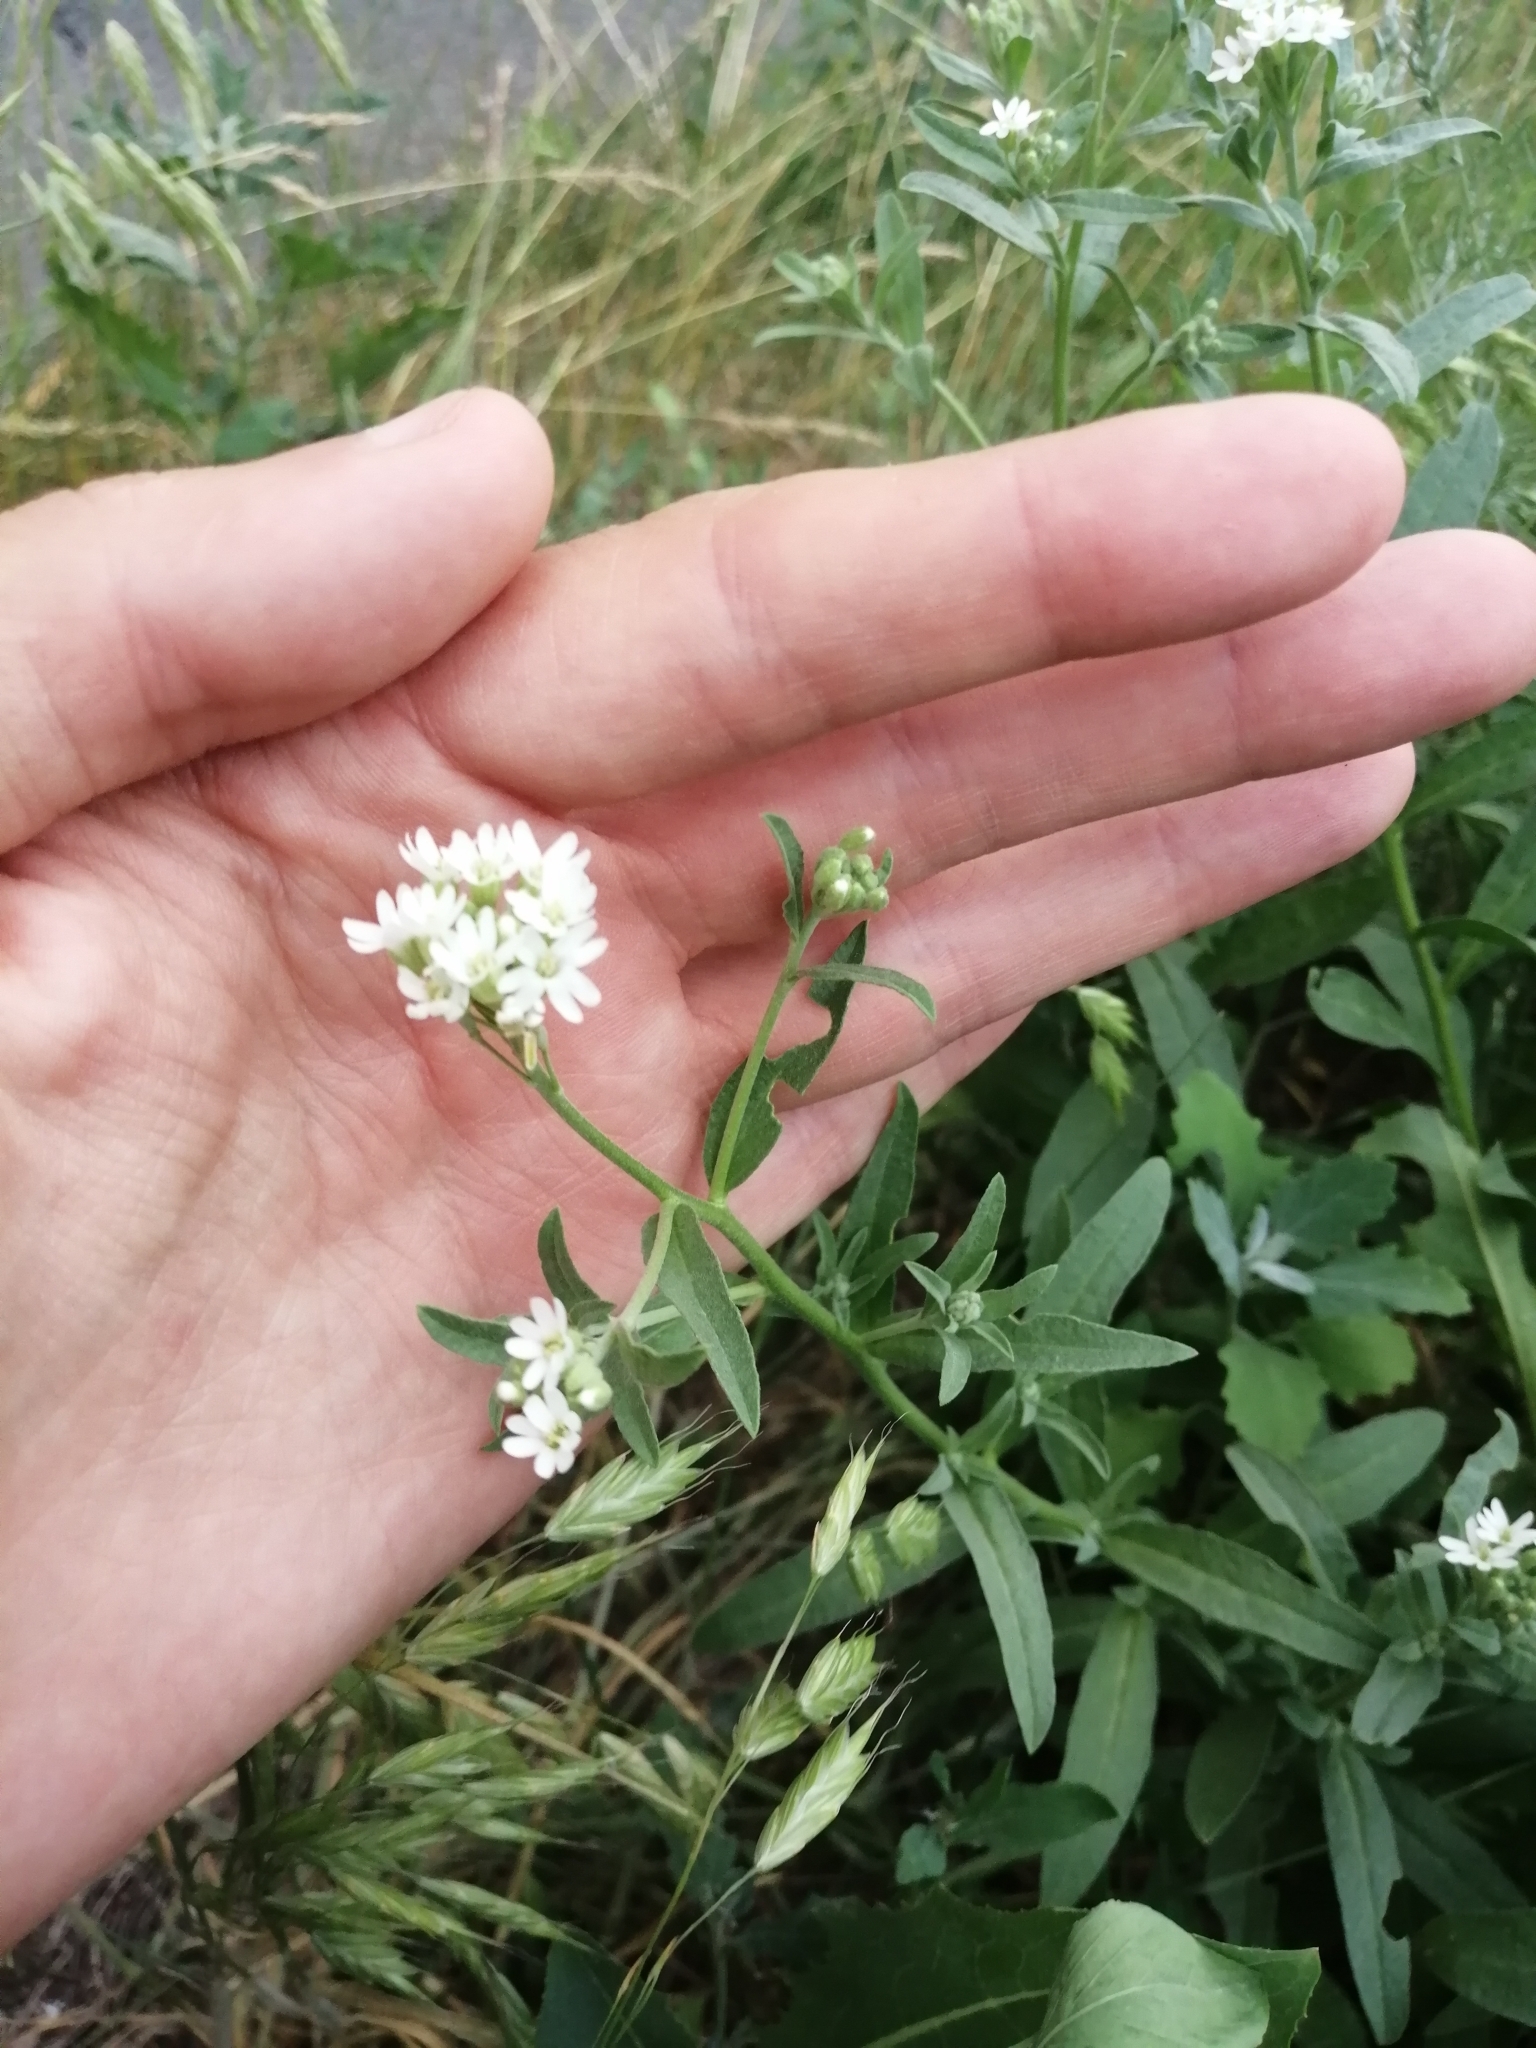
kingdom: Plantae
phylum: Tracheophyta
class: Magnoliopsida
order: Brassicales
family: Brassicaceae
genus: Berteroa
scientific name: Berteroa incana
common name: Hoary alison
